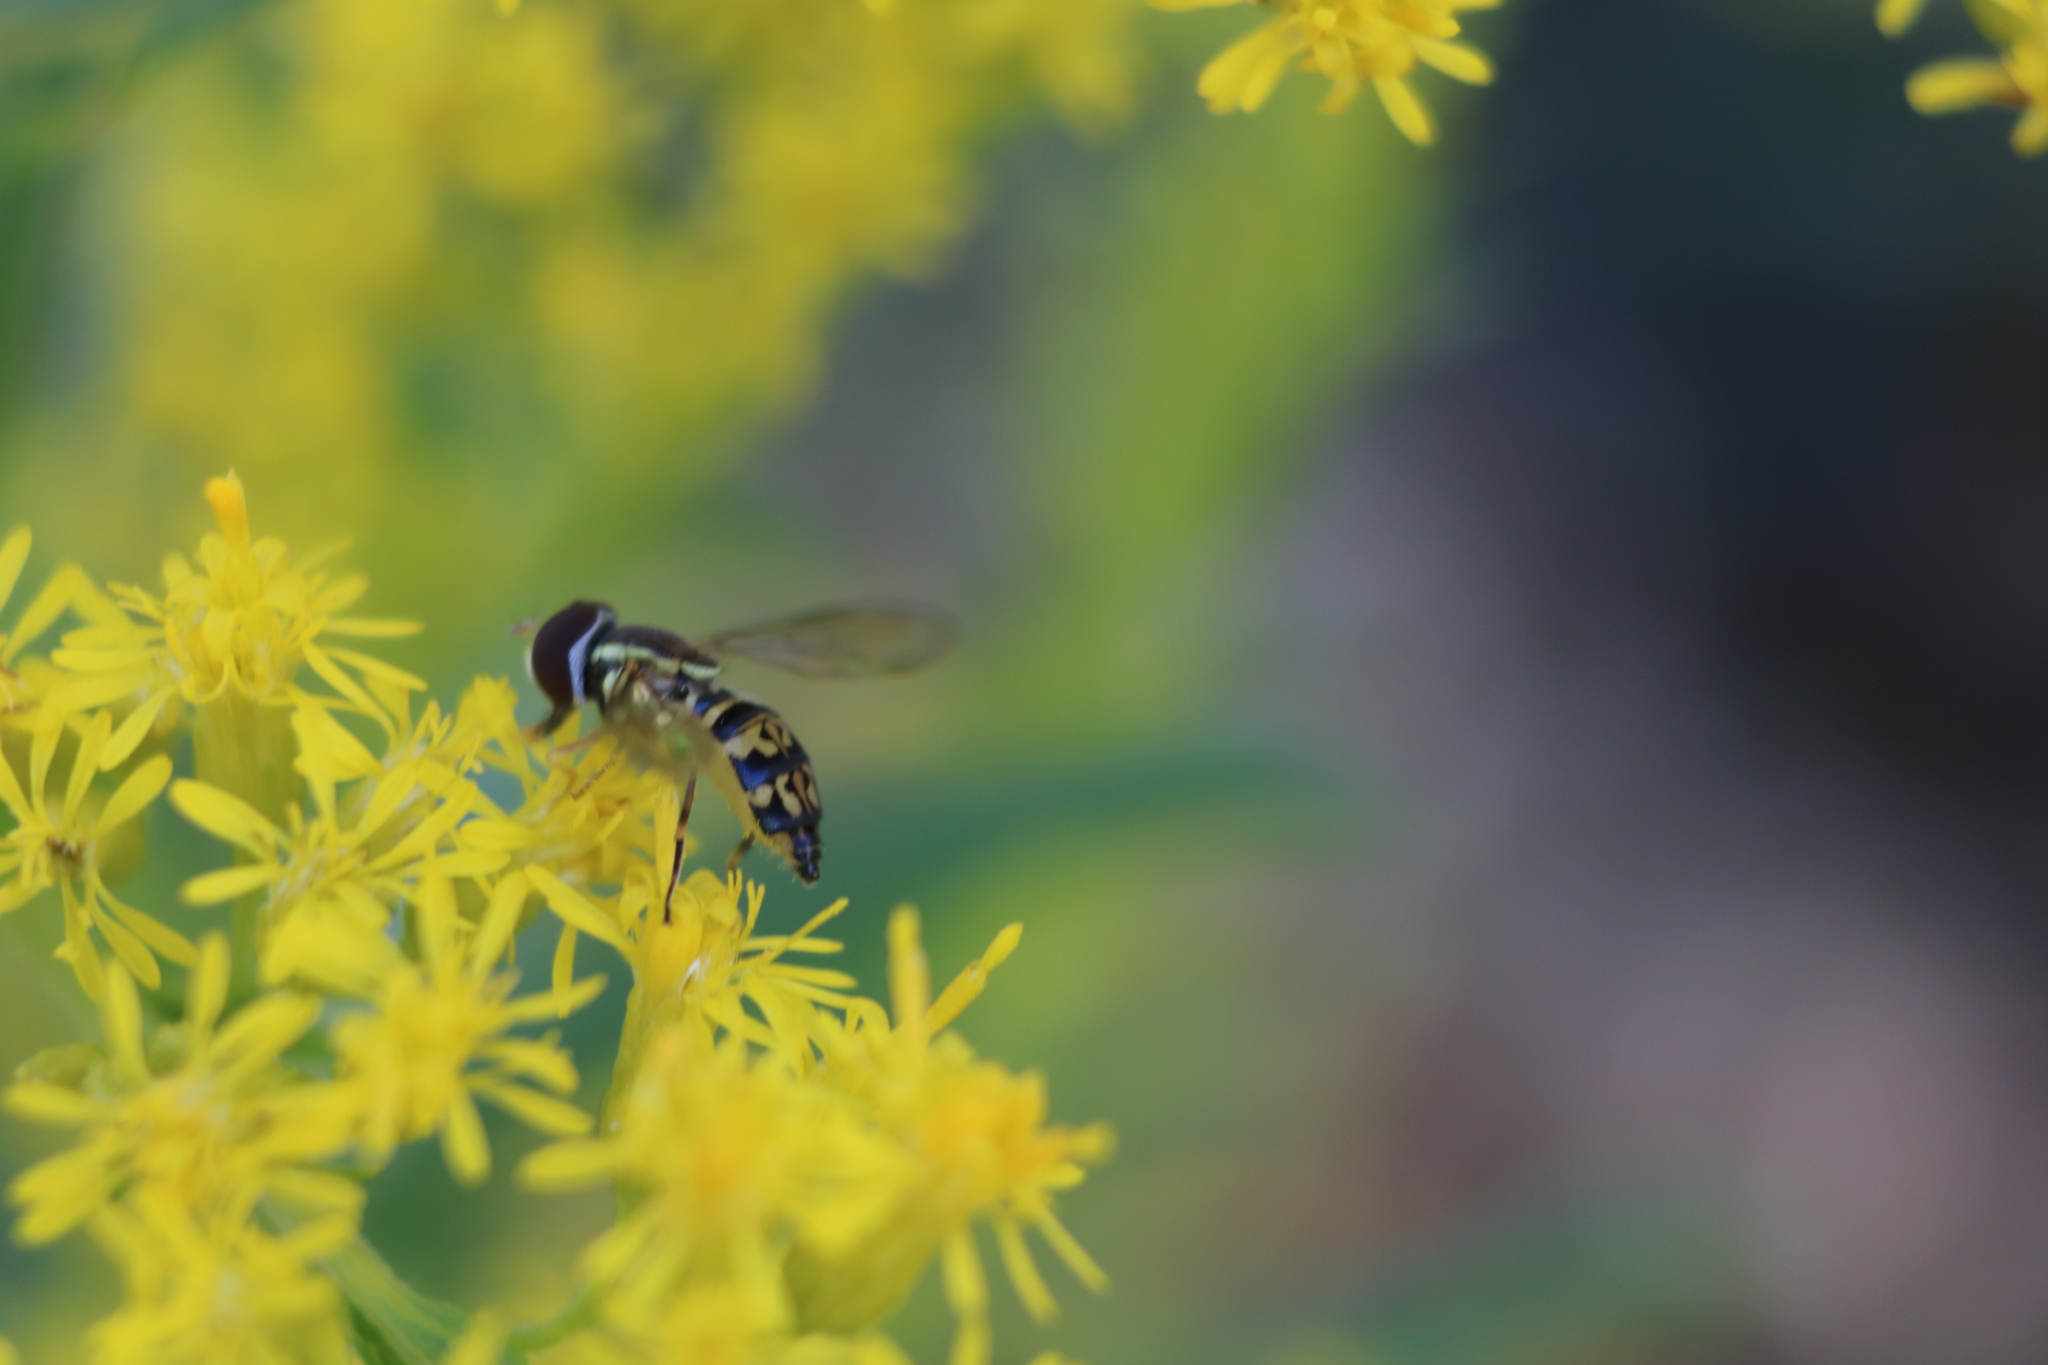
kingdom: Animalia
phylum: Arthropoda
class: Insecta
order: Diptera
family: Syrphidae
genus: Toxomerus
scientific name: Toxomerus geminatus
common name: Eastern calligrapher
